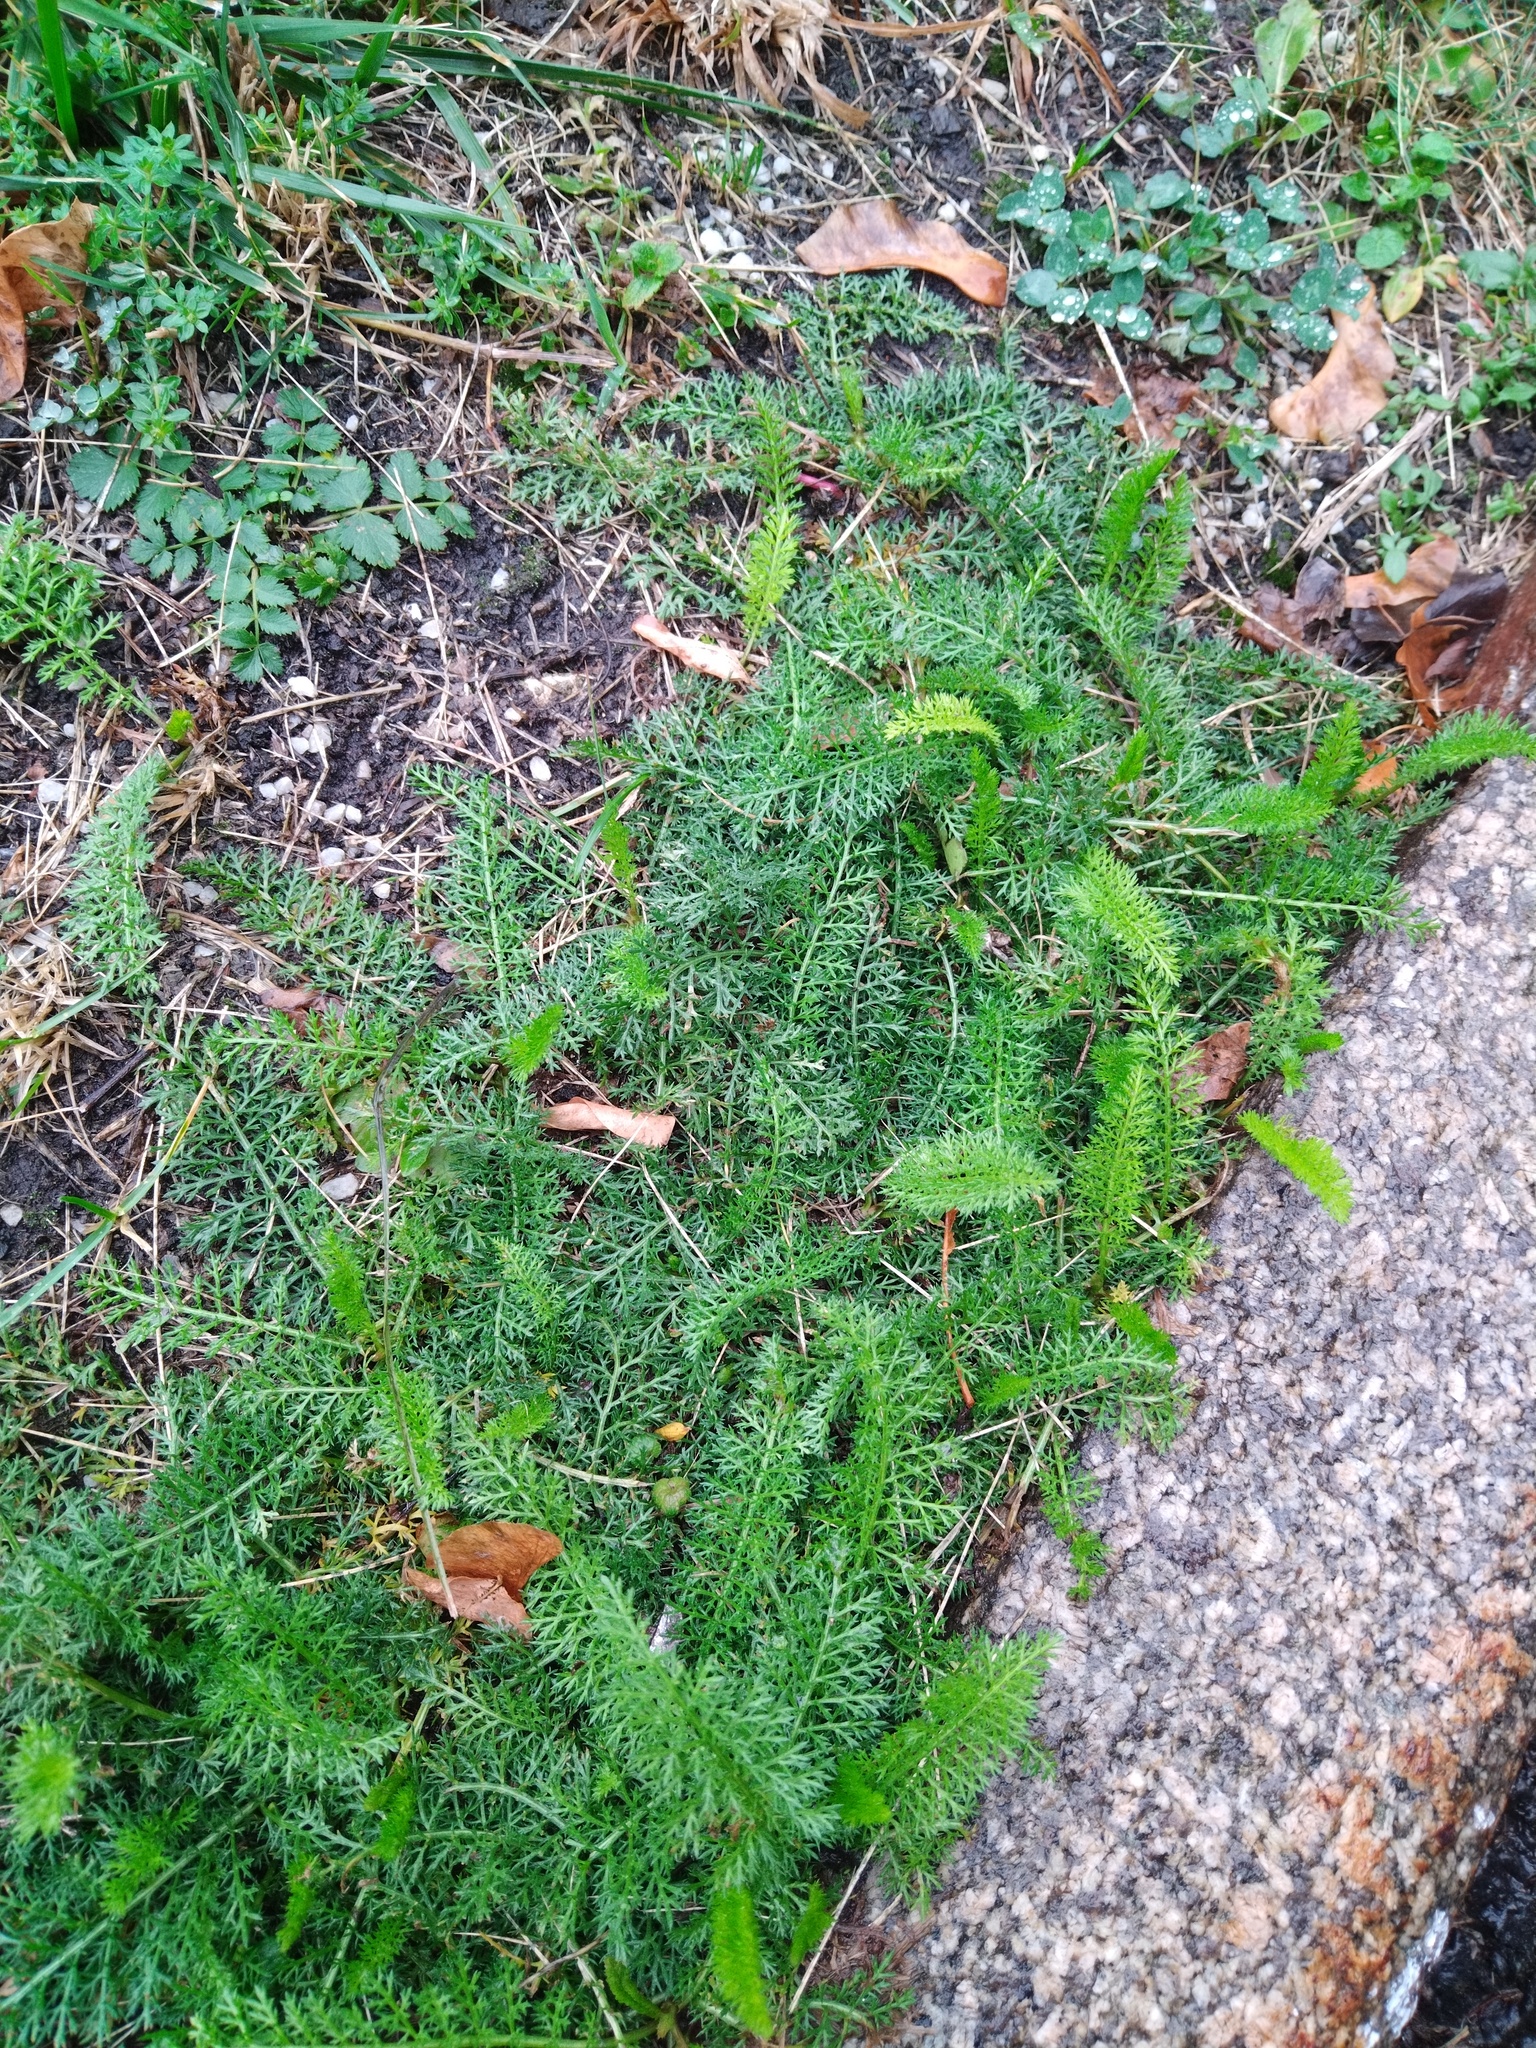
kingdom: Plantae
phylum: Tracheophyta
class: Magnoliopsida
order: Asterales
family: Asteraceae
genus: Achillea
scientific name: Achillea millefolium
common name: Yarrow
